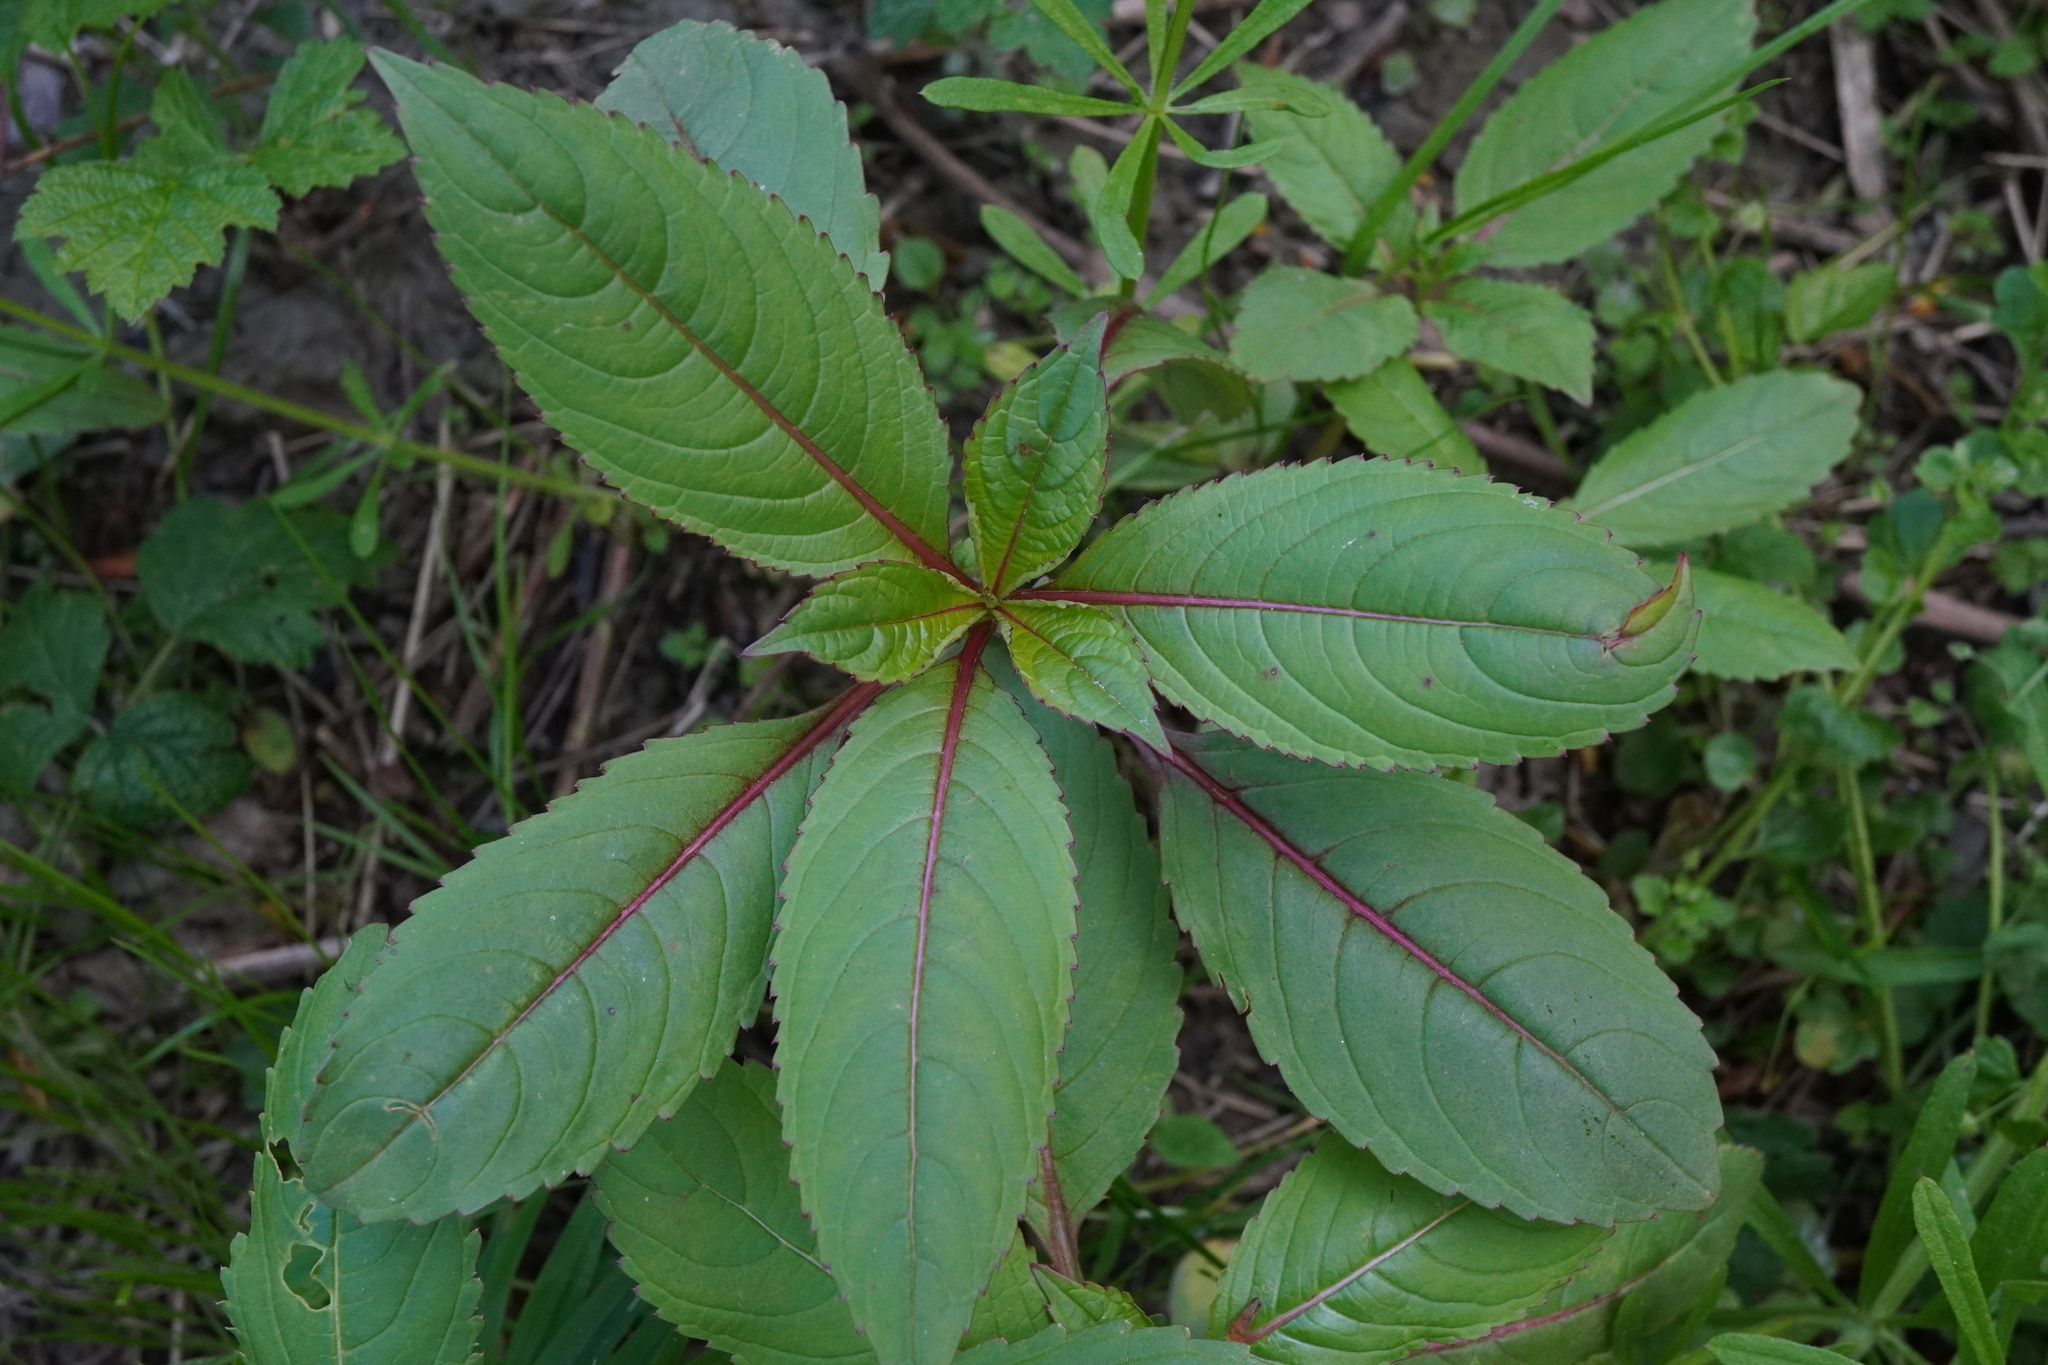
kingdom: Plantae
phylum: Tracheophyta
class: Magnoliopsida
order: Ericales
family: Balsaminaceae
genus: Impatiens
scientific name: Impatiens glandulifera
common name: Himalayan balsam
